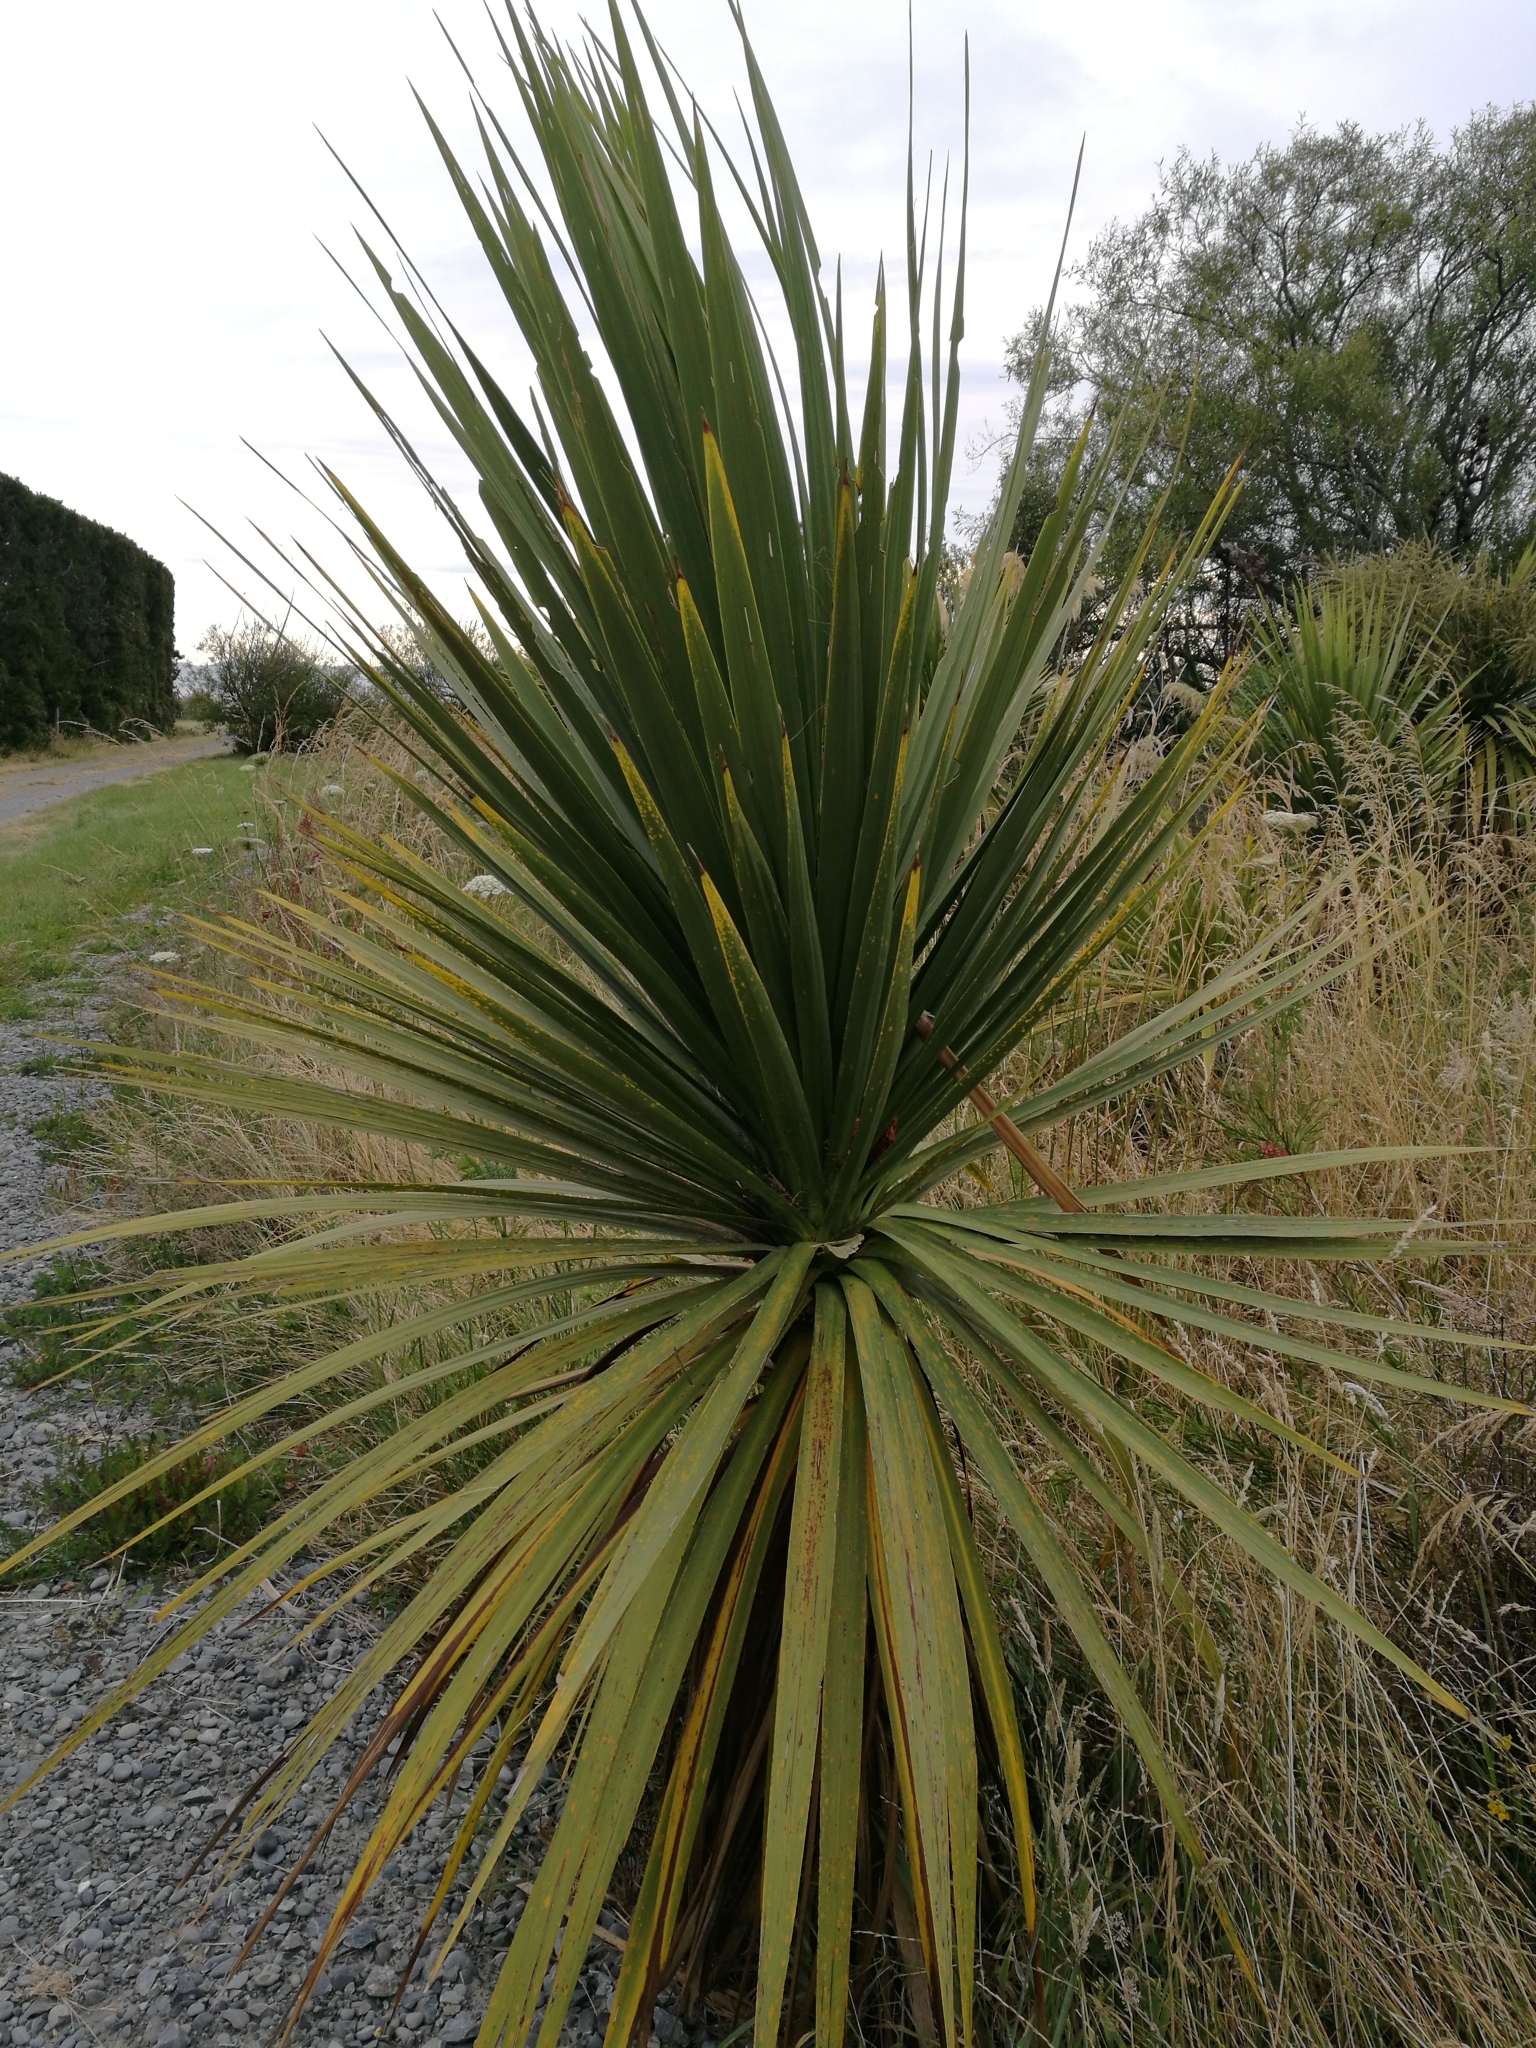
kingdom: Plantae
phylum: Tracheophyta
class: Liliopsida
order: Asparagales
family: Asparagaceae
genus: Cordyline
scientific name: Cordyline australis
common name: Cabbage-palm
